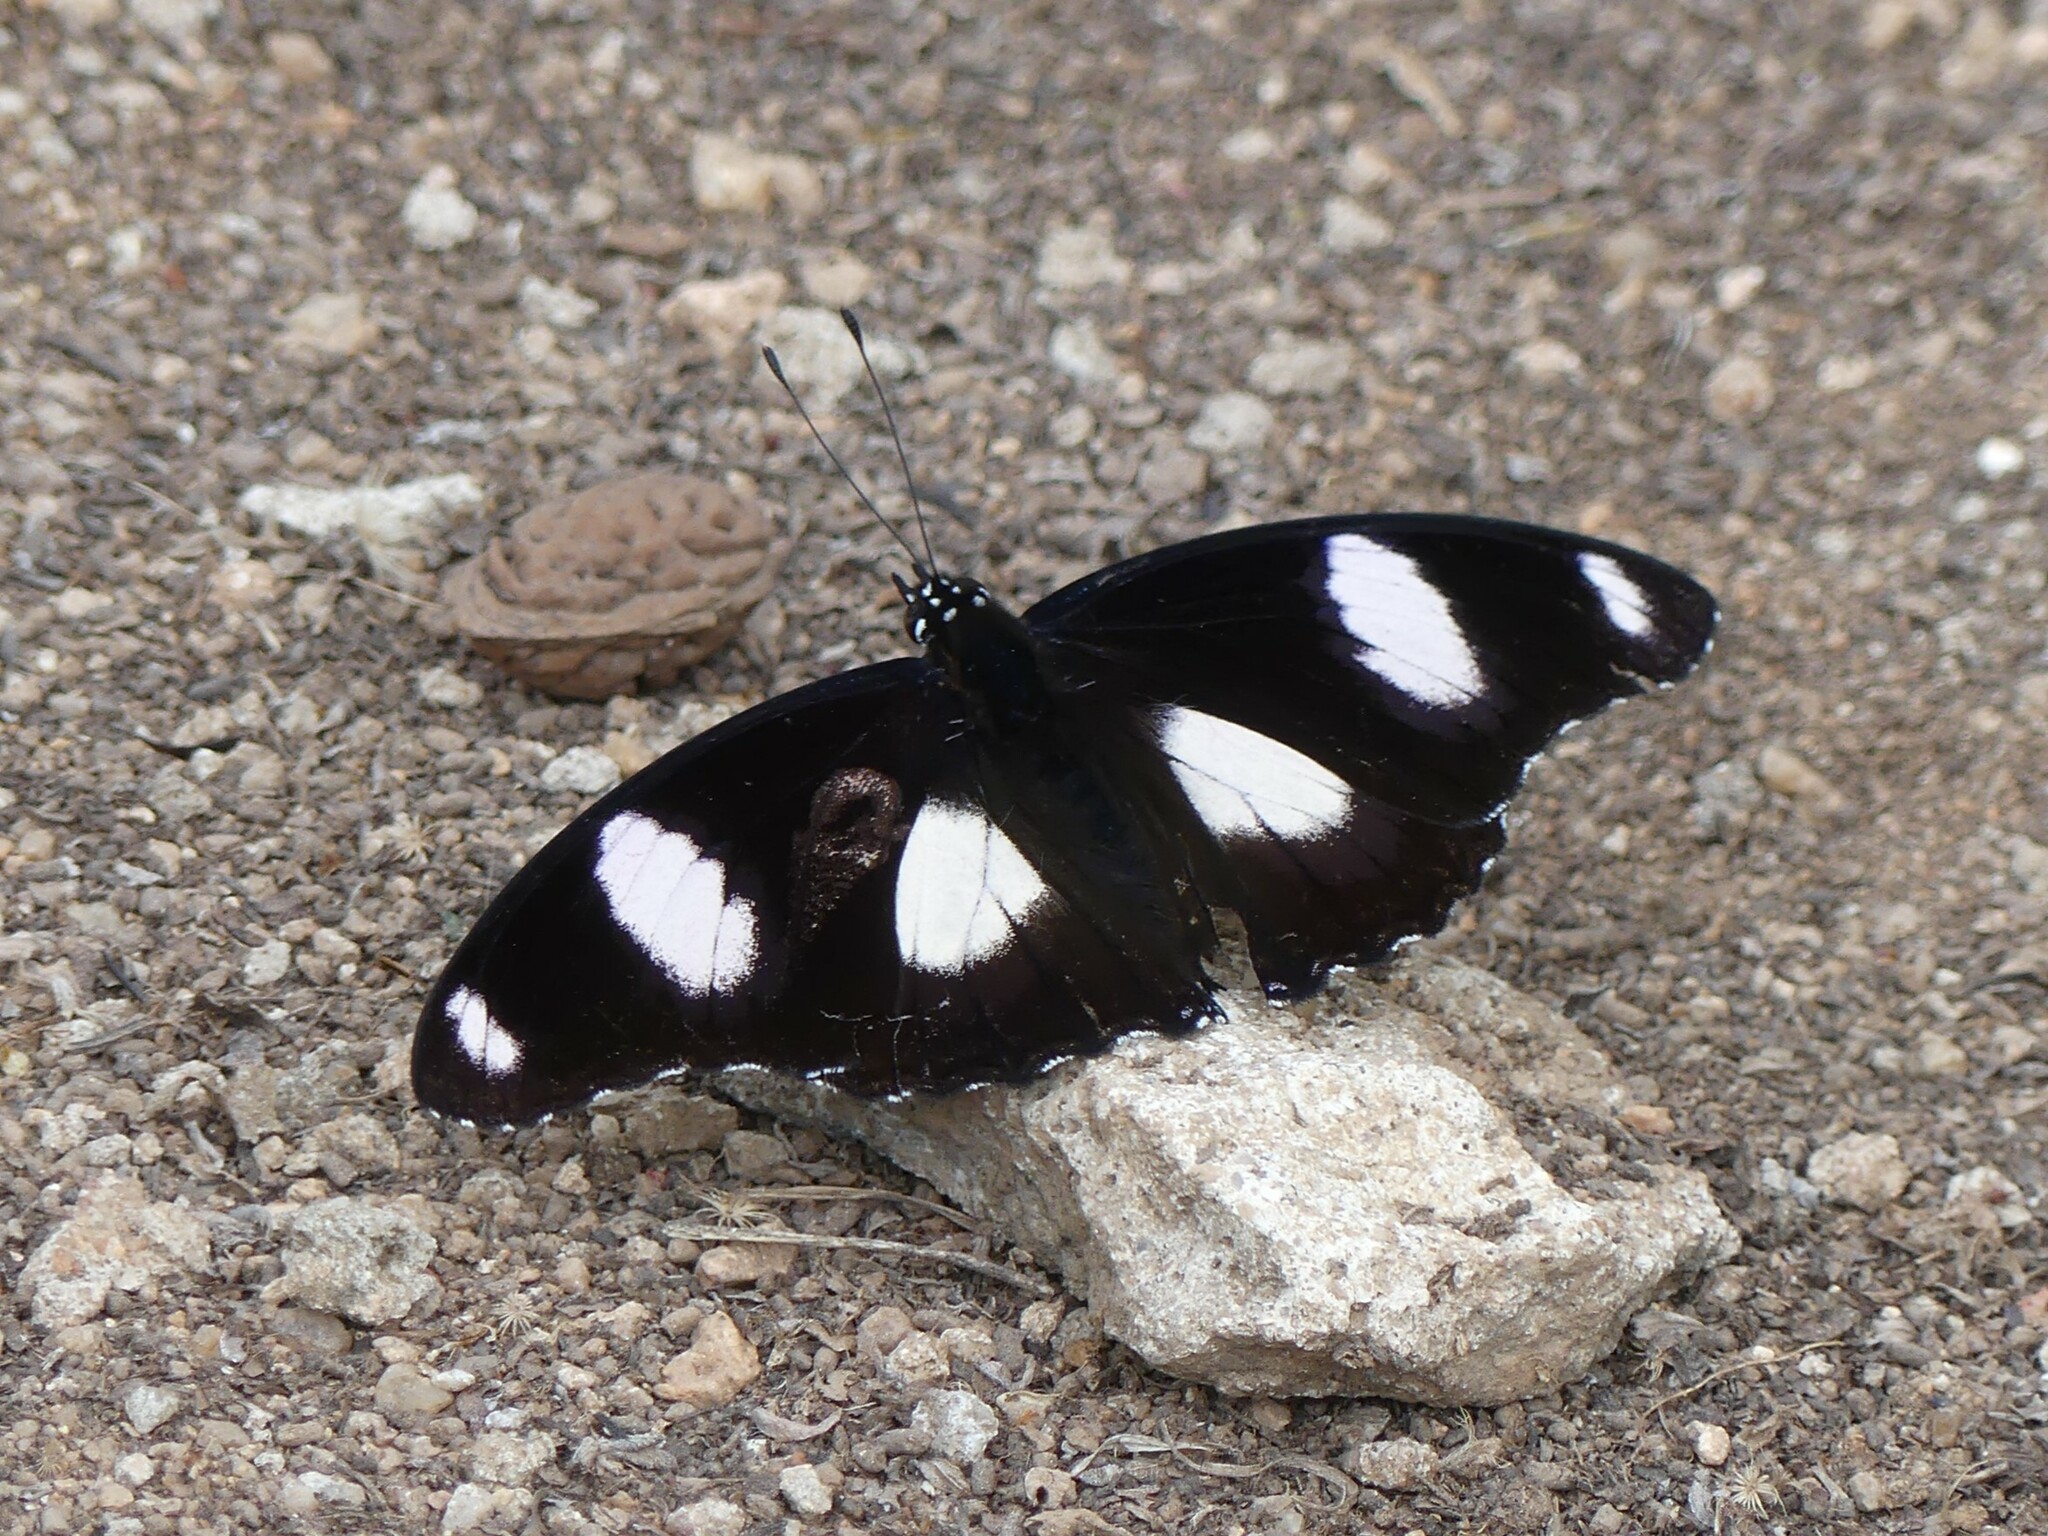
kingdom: Animalia
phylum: Arthropoda
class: Insecta
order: Lepidoptera
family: Nymphalidae
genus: Hypolimnas
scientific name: Hypolimnas misippus
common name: False plain tiger
